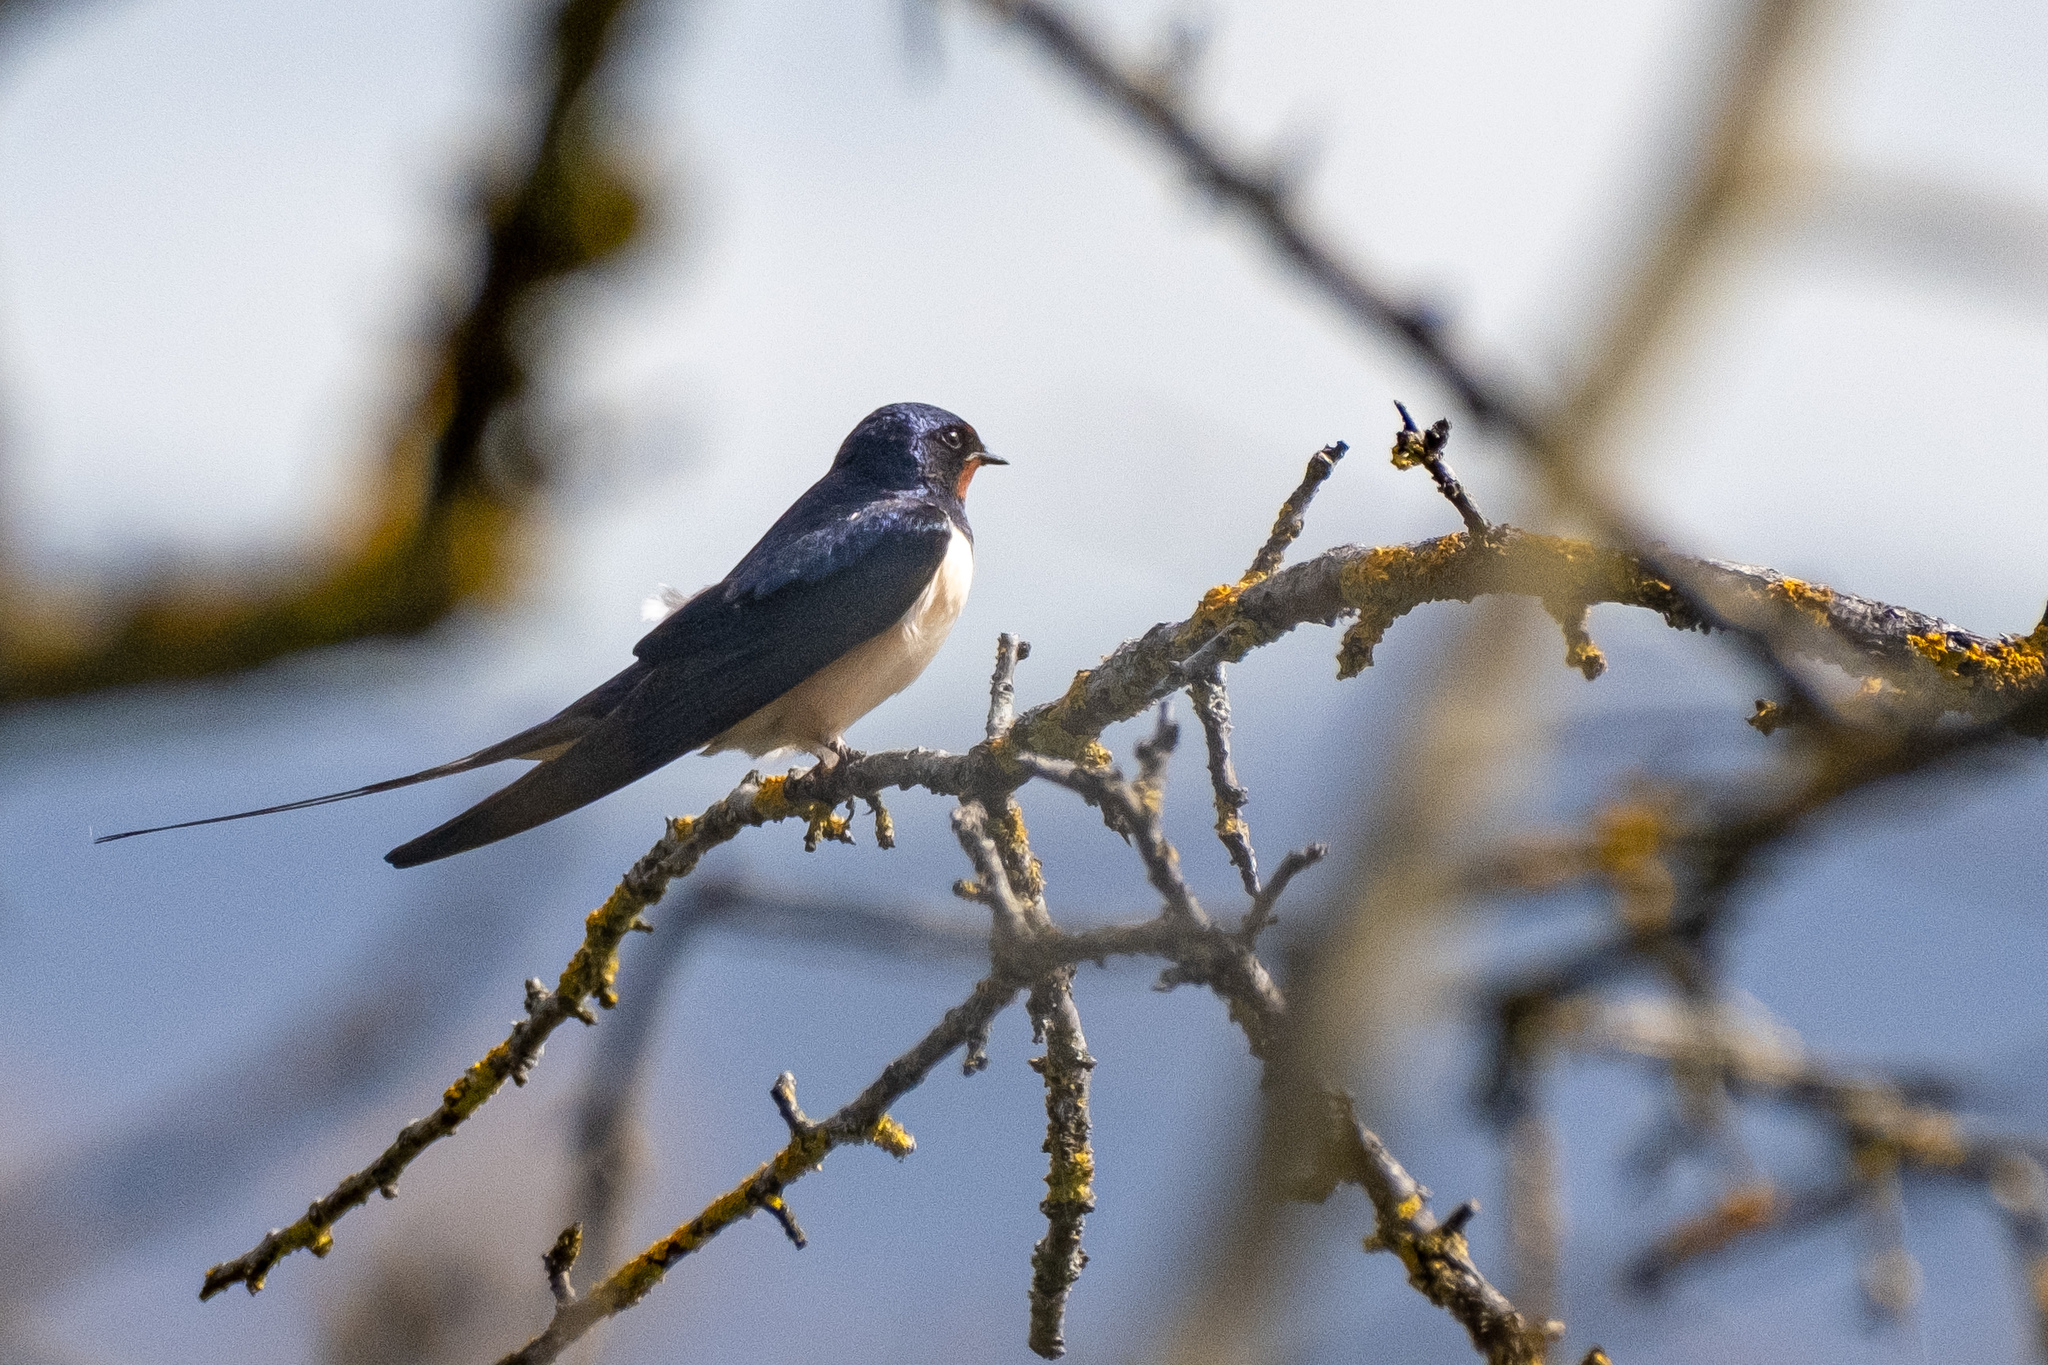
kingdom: Animalia
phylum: Chordata
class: Aves
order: Passeriformes
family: Hirundinidae
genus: Hirundo
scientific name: Hirundo rustica
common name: Barn swallow
